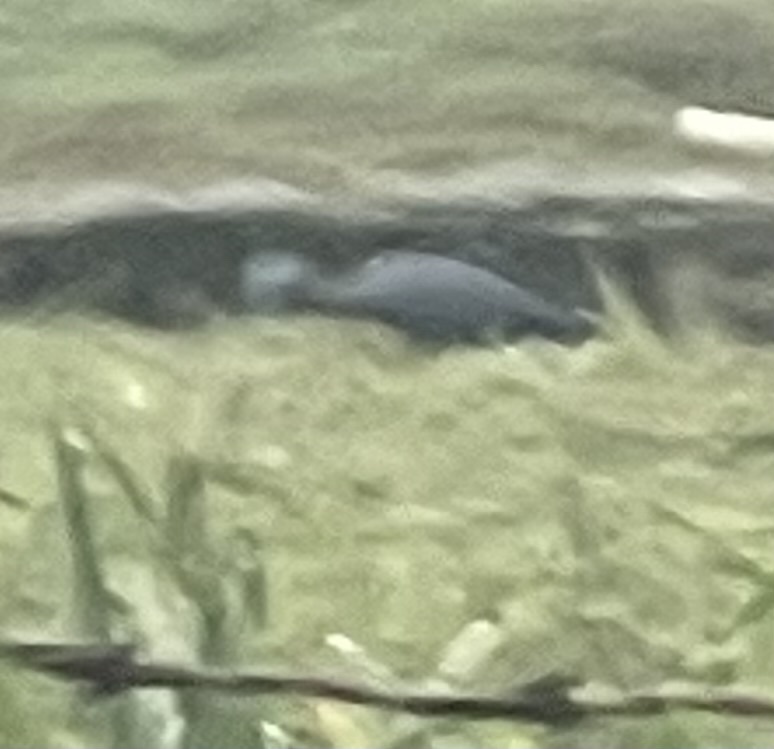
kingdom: Animalia
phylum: Chordata
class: Aves
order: Pelecaniformes
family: Ardeidae
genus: Egretta
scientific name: Egretta caerulea
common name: Little blue heron
